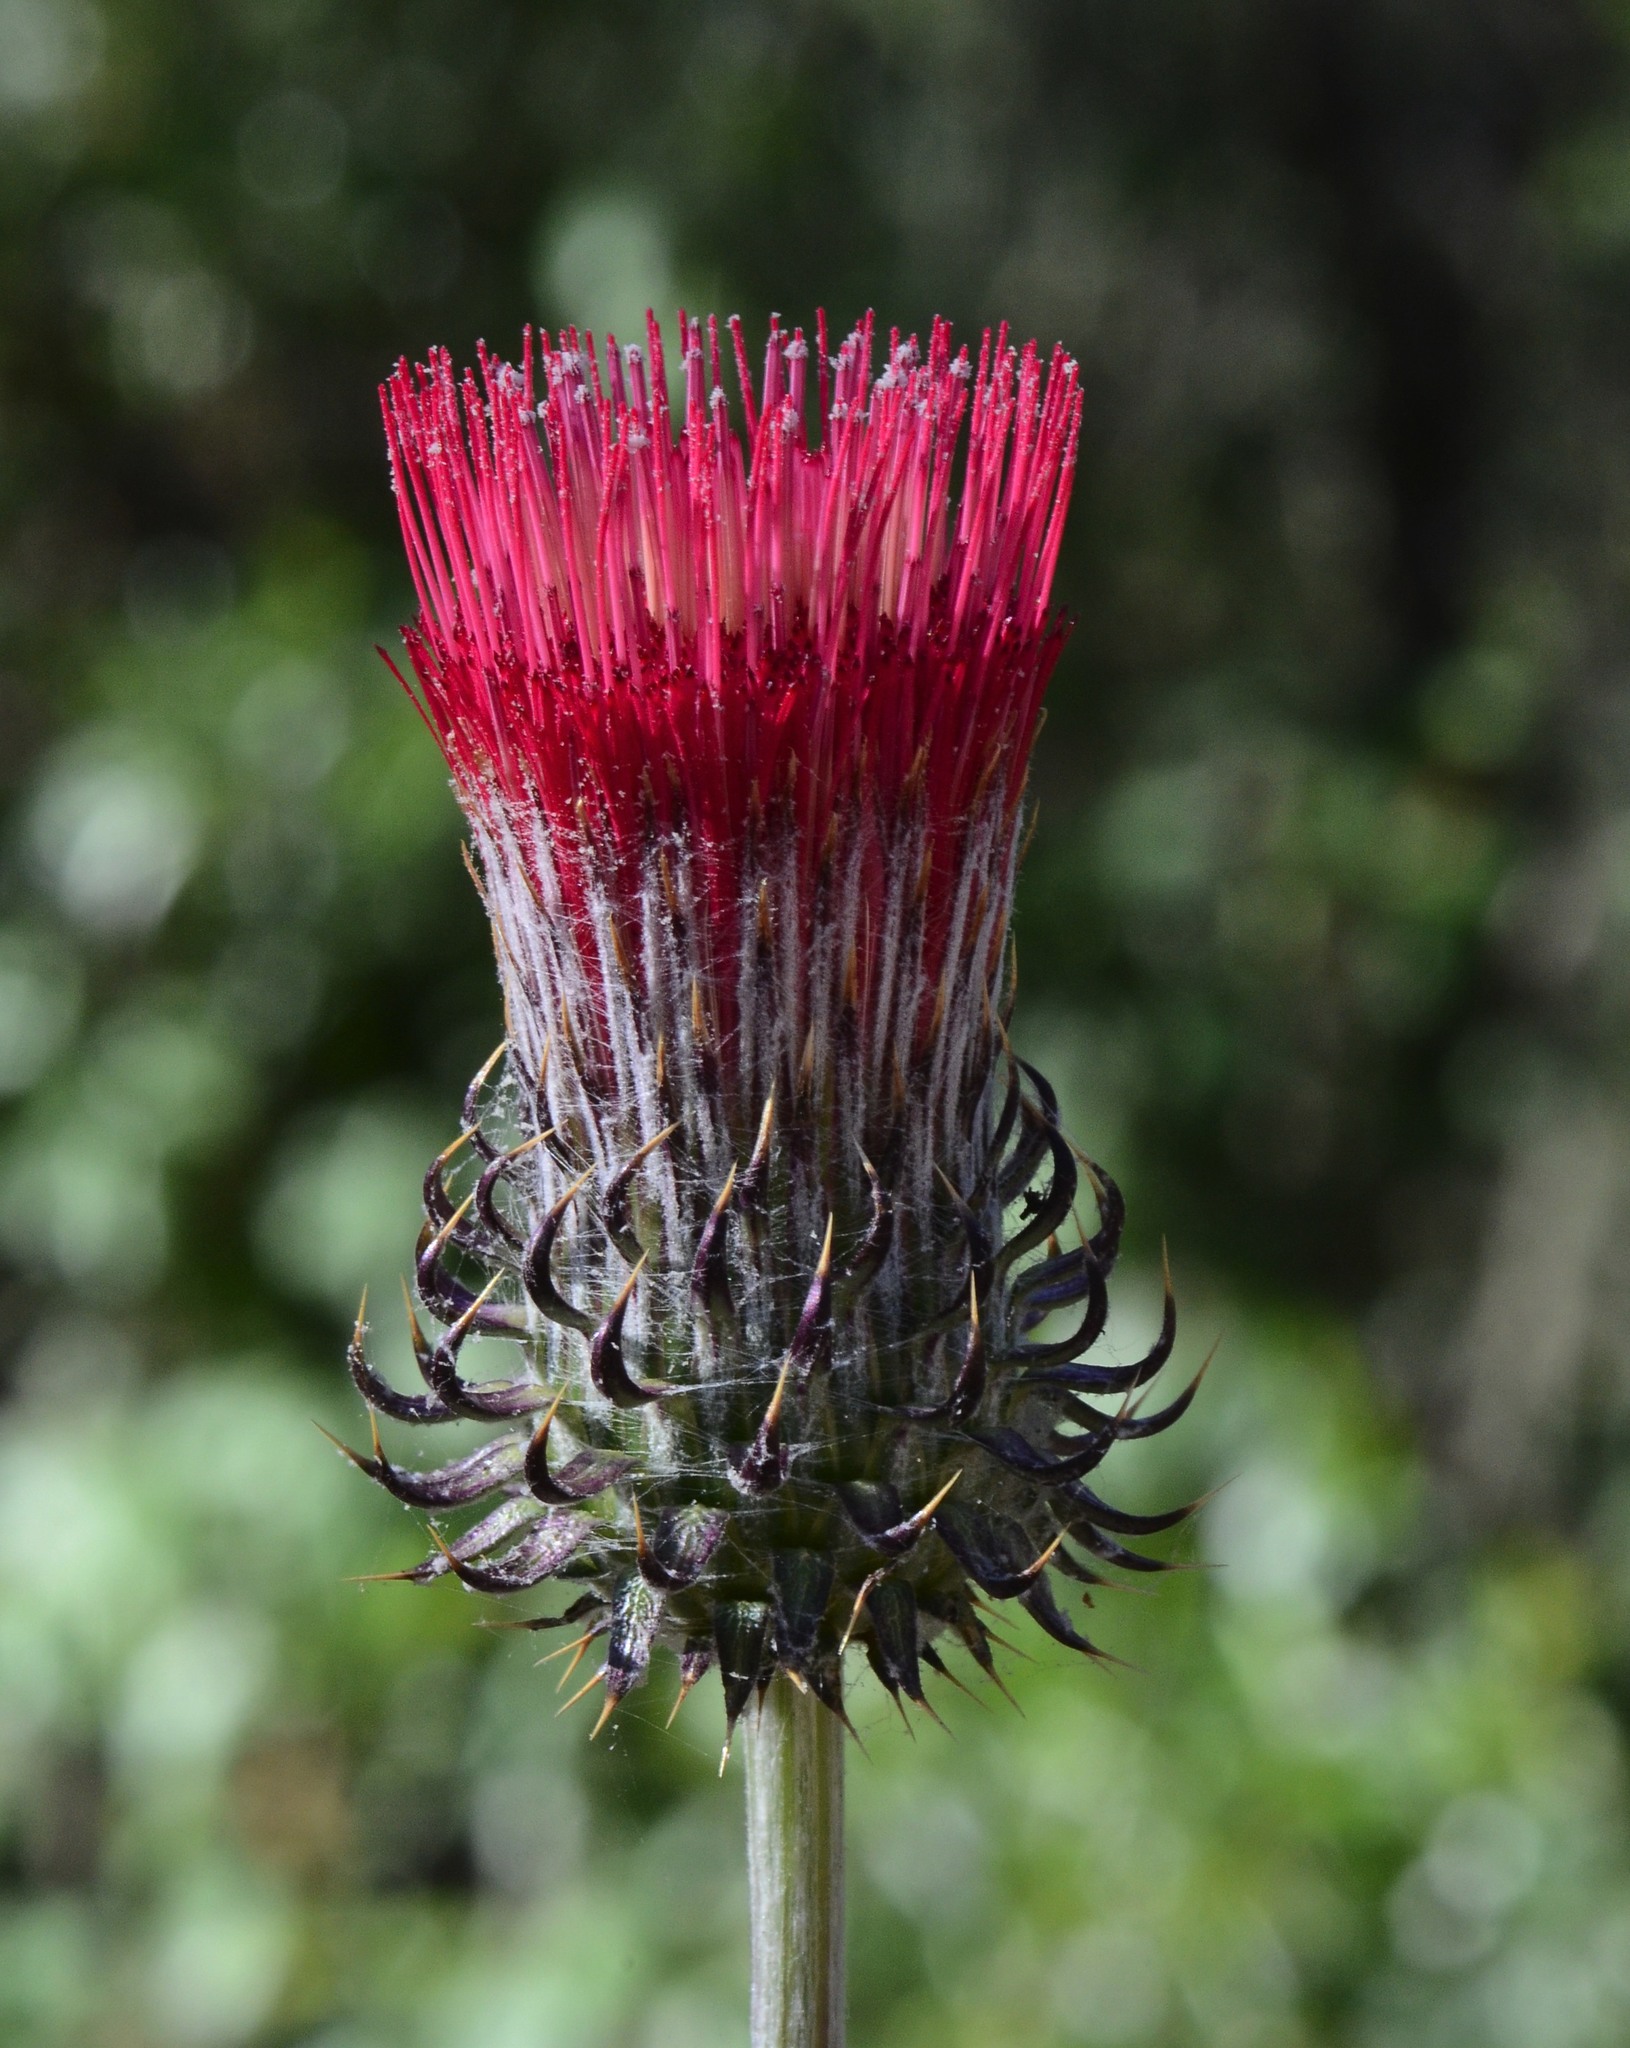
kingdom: Plantae
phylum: Tracheophyta
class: Magnoliopsida
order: Asterales
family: Asteraceae
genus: Cirsium
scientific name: Cirsium occidentale
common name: Western thistle
